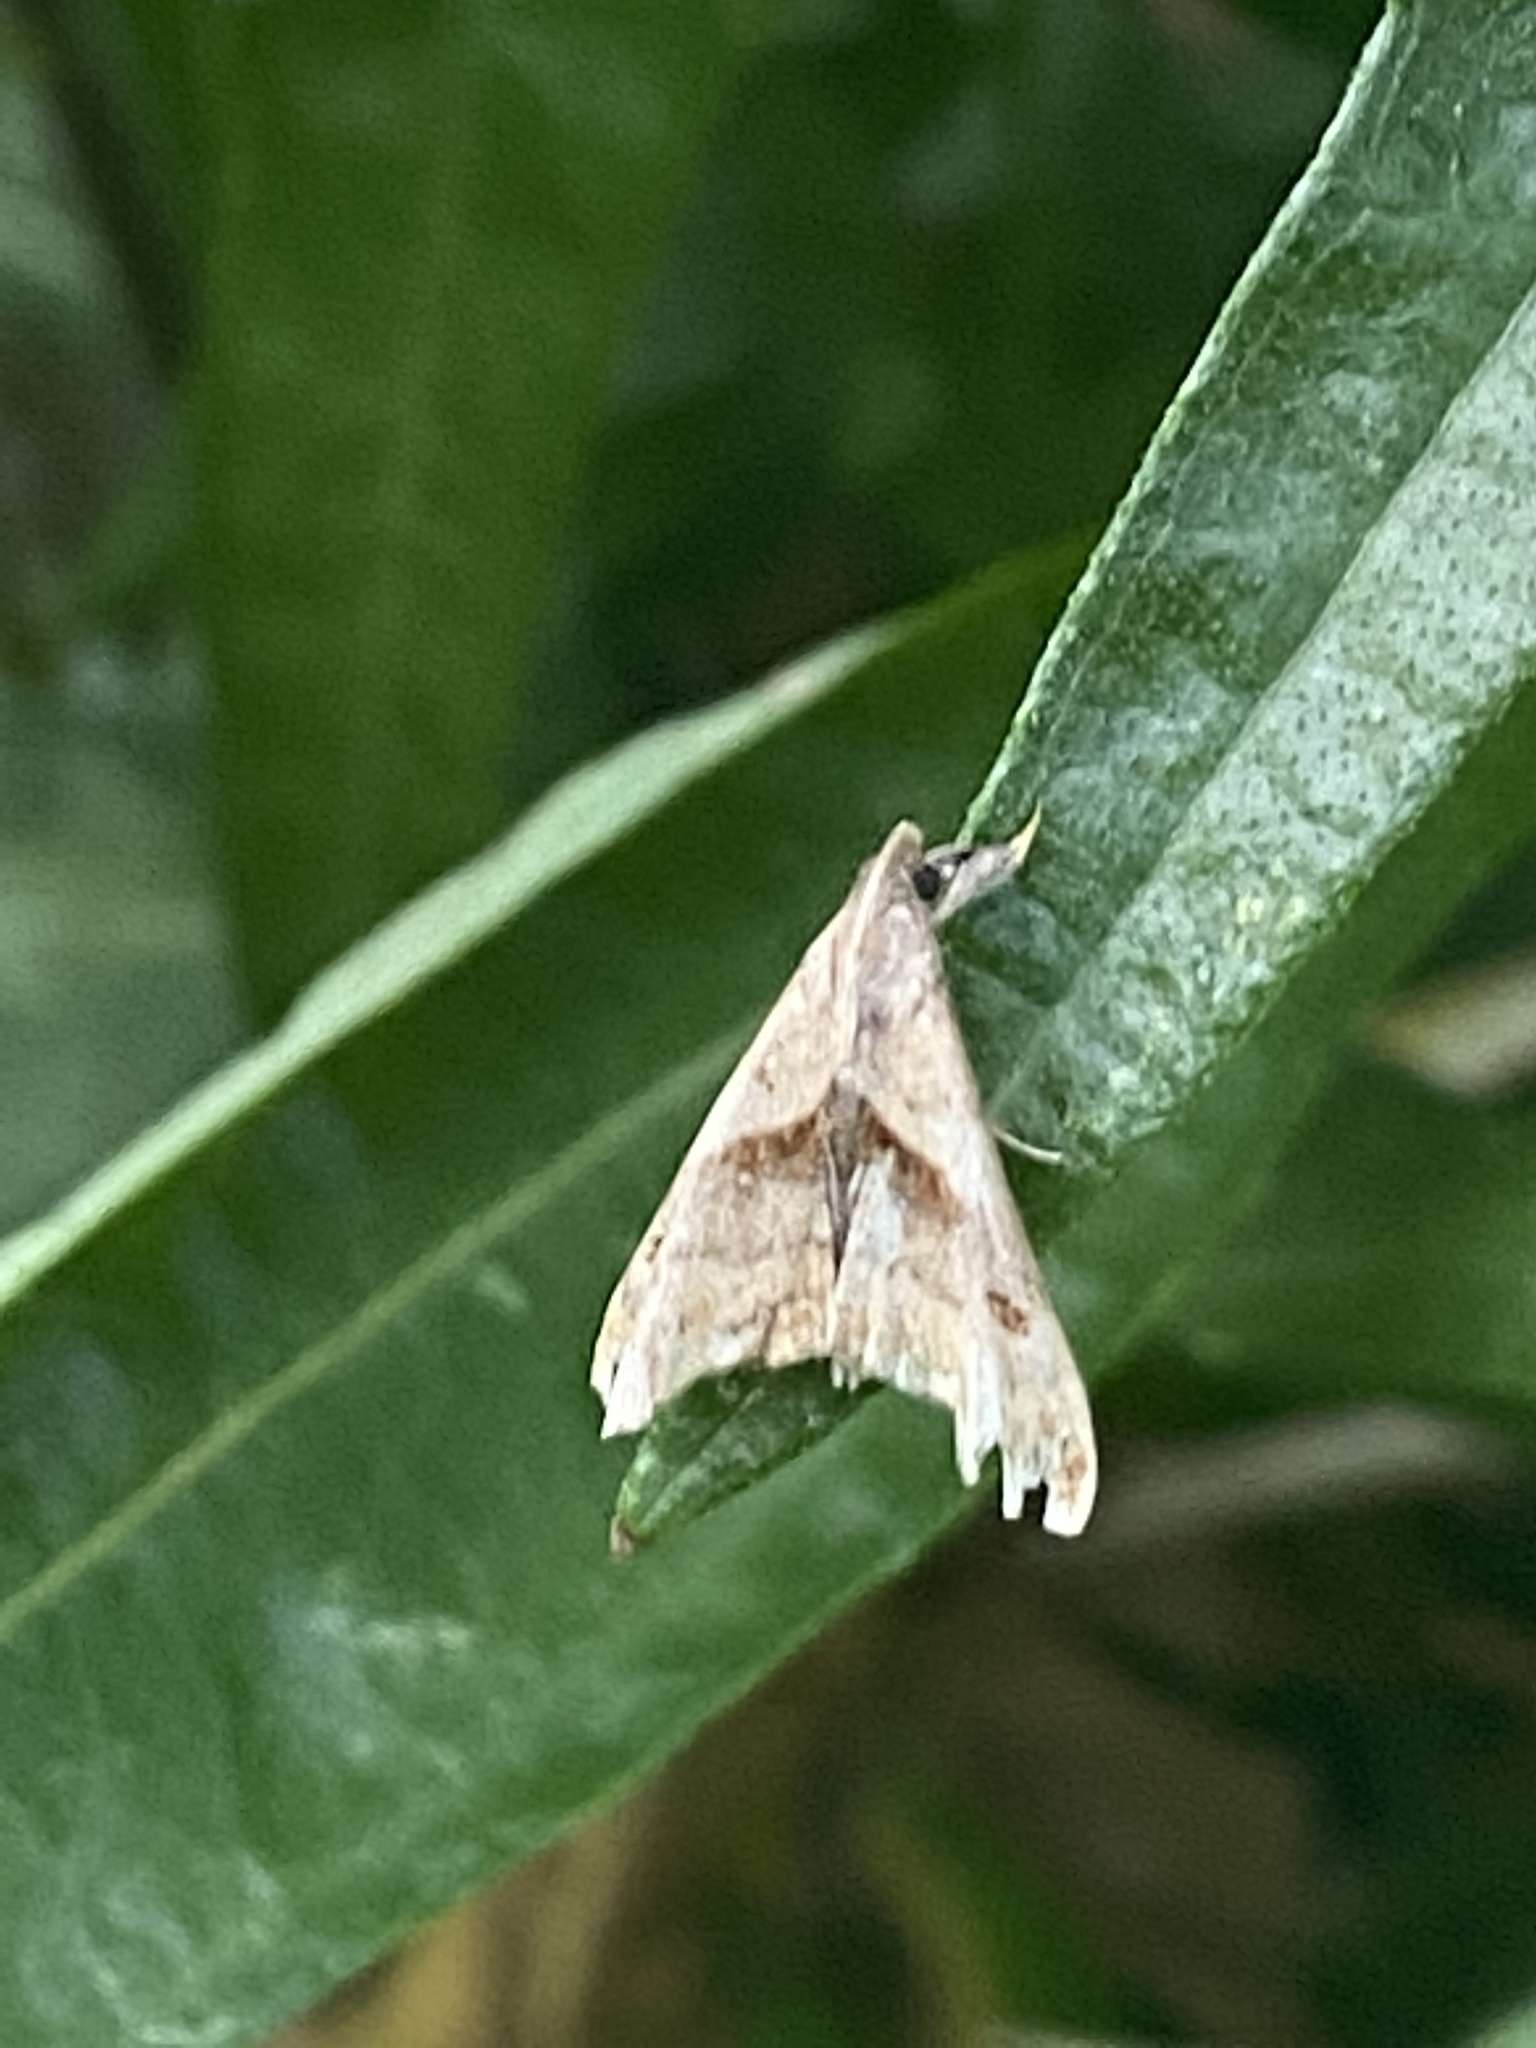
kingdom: Animalia
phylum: Arthropoda
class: Insecta
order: Lepidoptera
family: Erebidae
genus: Palthis
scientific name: Palthis angulalis
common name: Dark-spotted palthis moth
